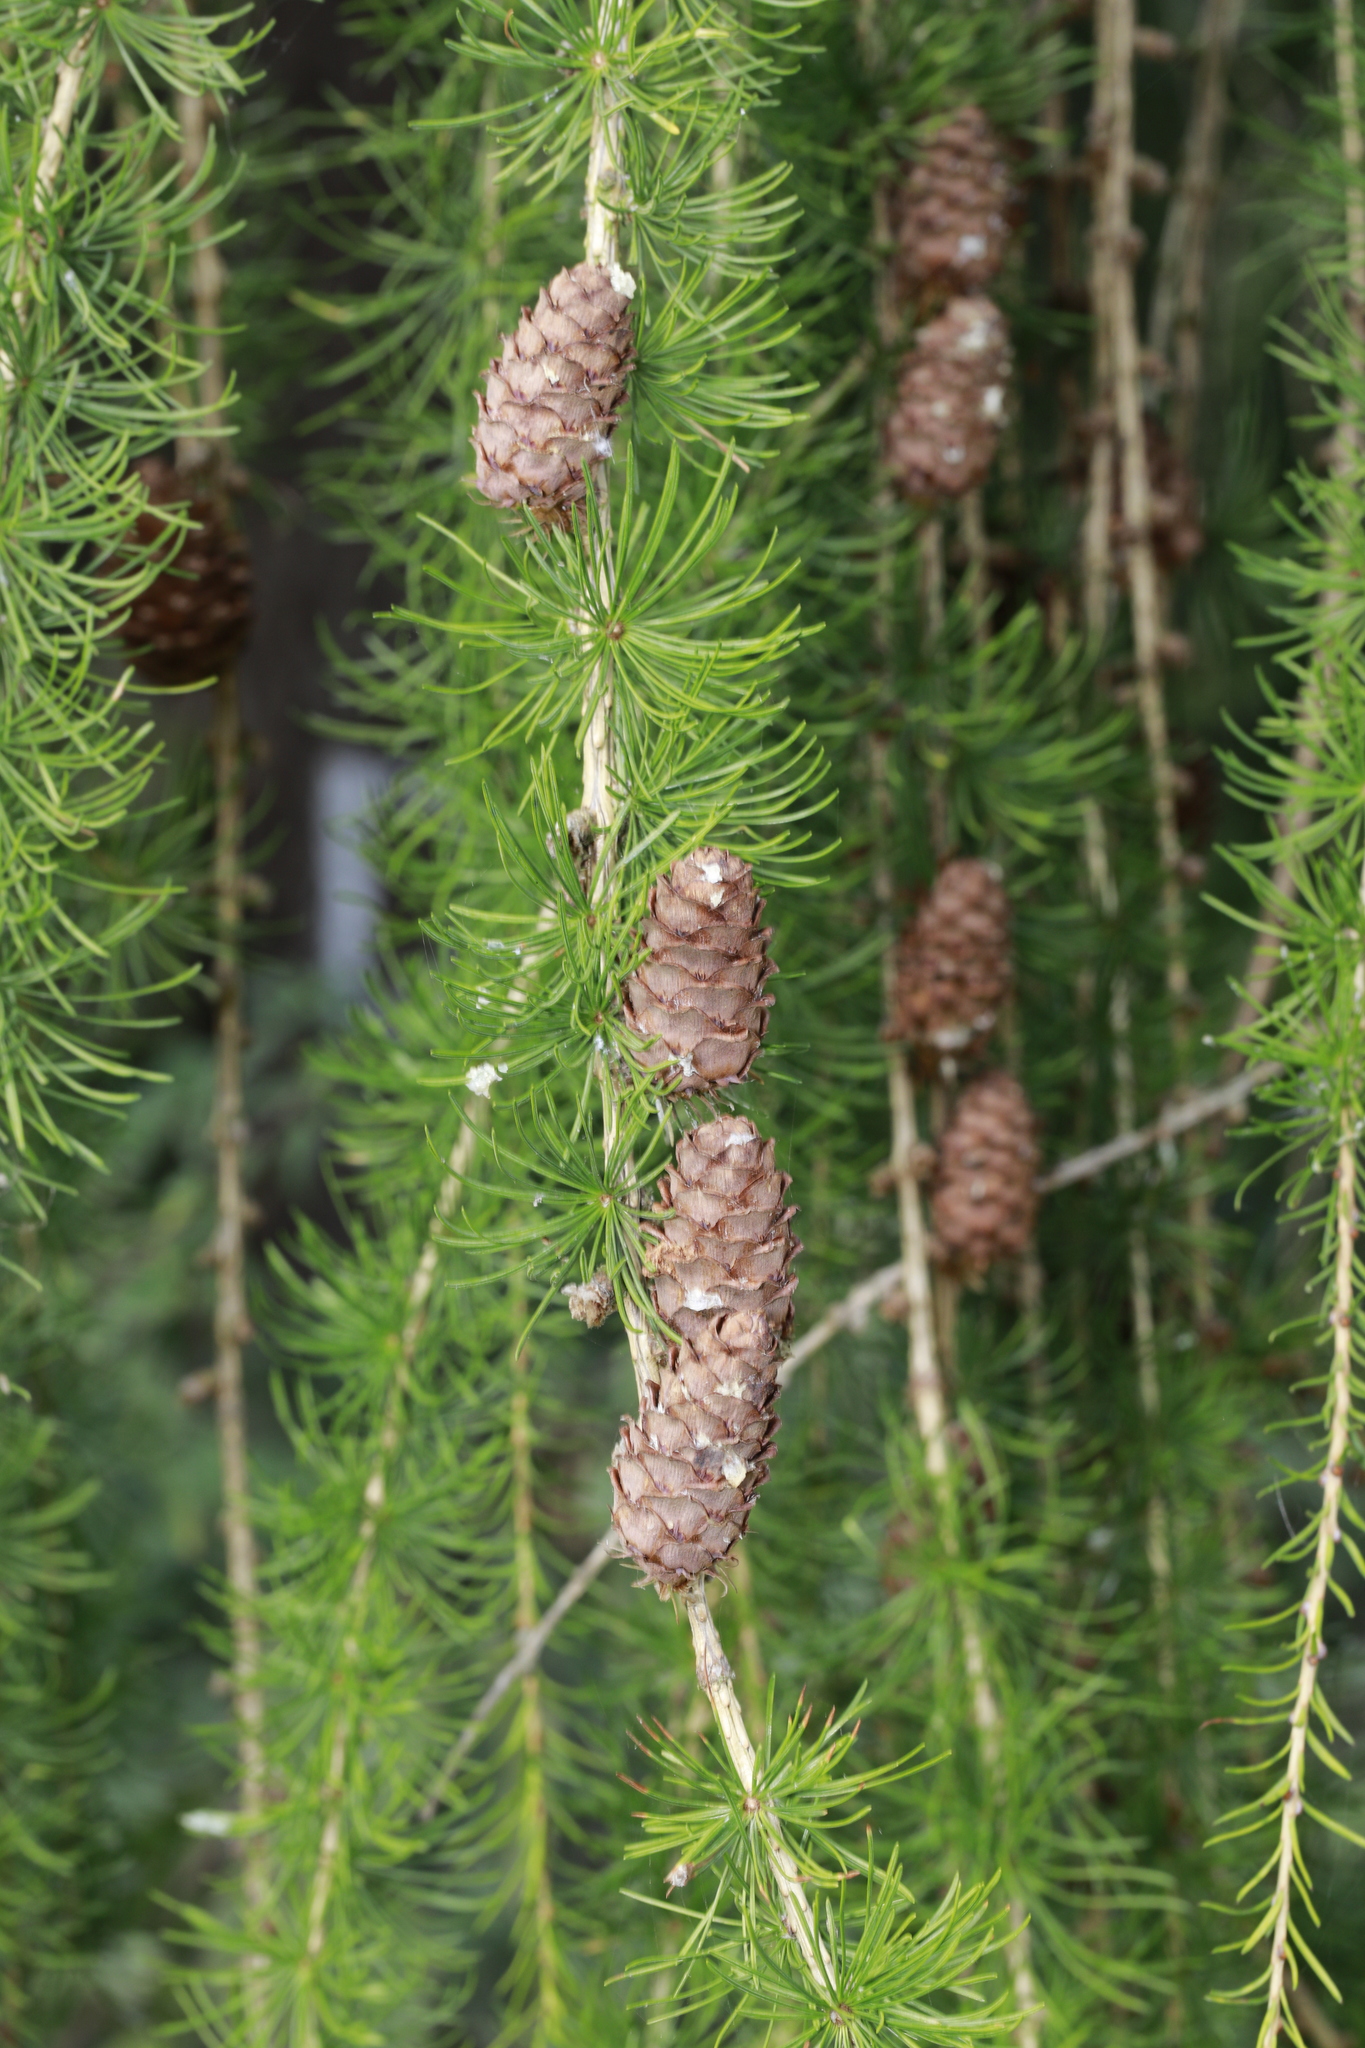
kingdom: Plantae
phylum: Tracheophyta
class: Pinopsida
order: Pinales
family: Pinaceae
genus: Larix
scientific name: Larix decidua
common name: European larch
